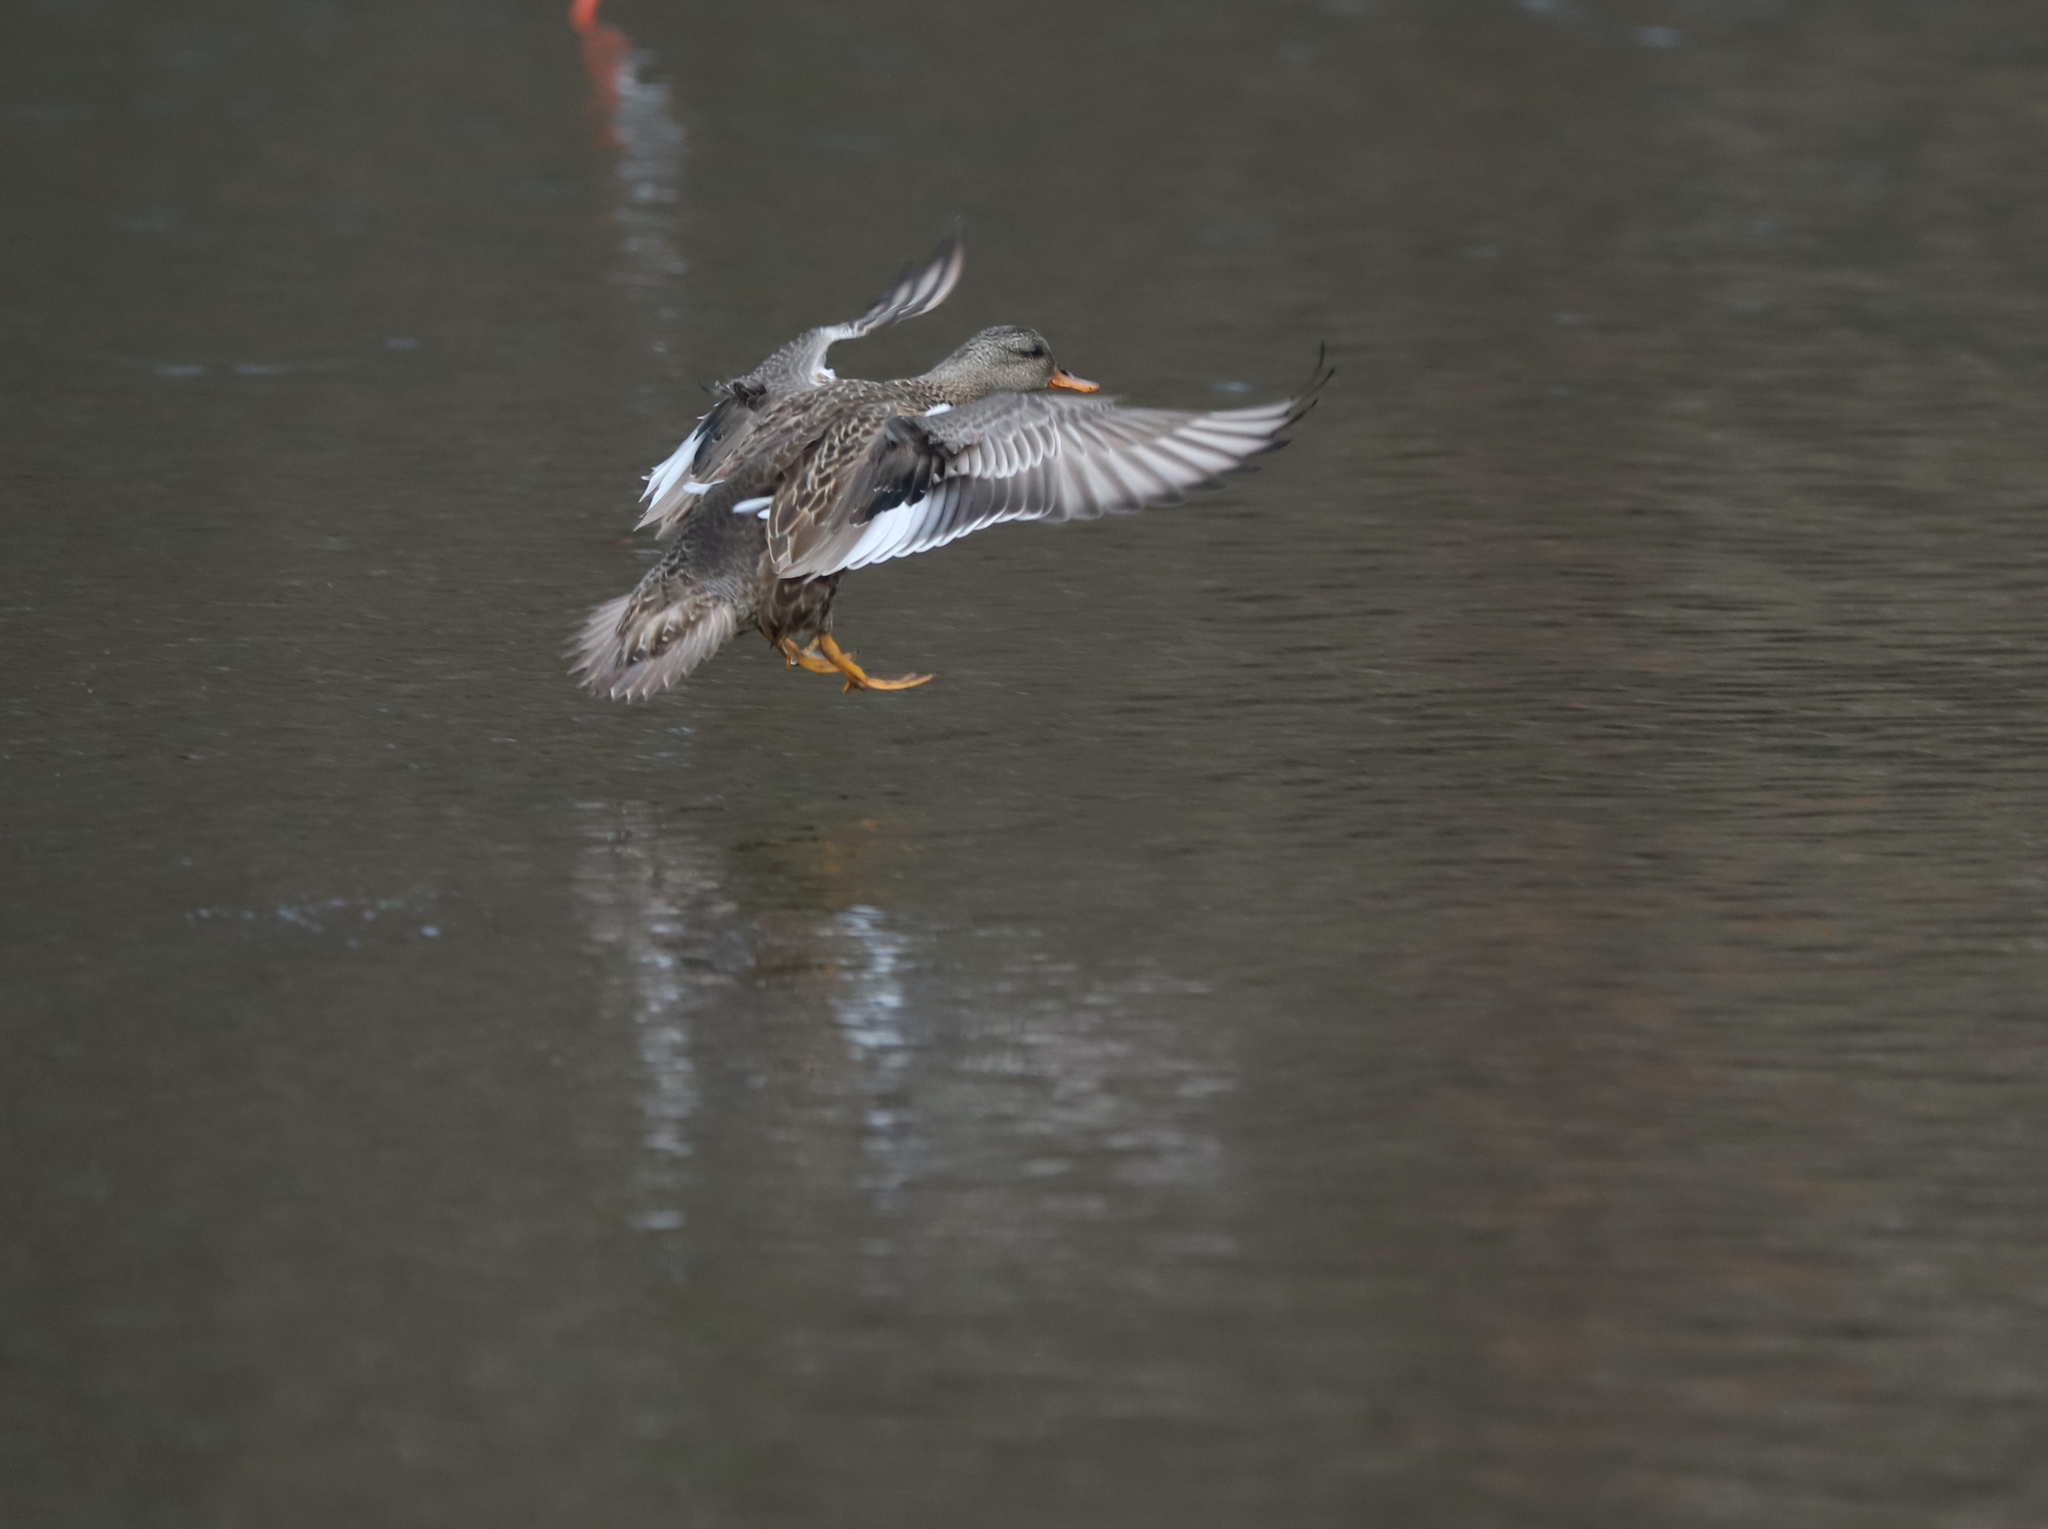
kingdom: Animalia
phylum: Chordata
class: Aves
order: Anseriformes
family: Anatidae
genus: Anas
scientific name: Anas platyrhynchos
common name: Mallard
